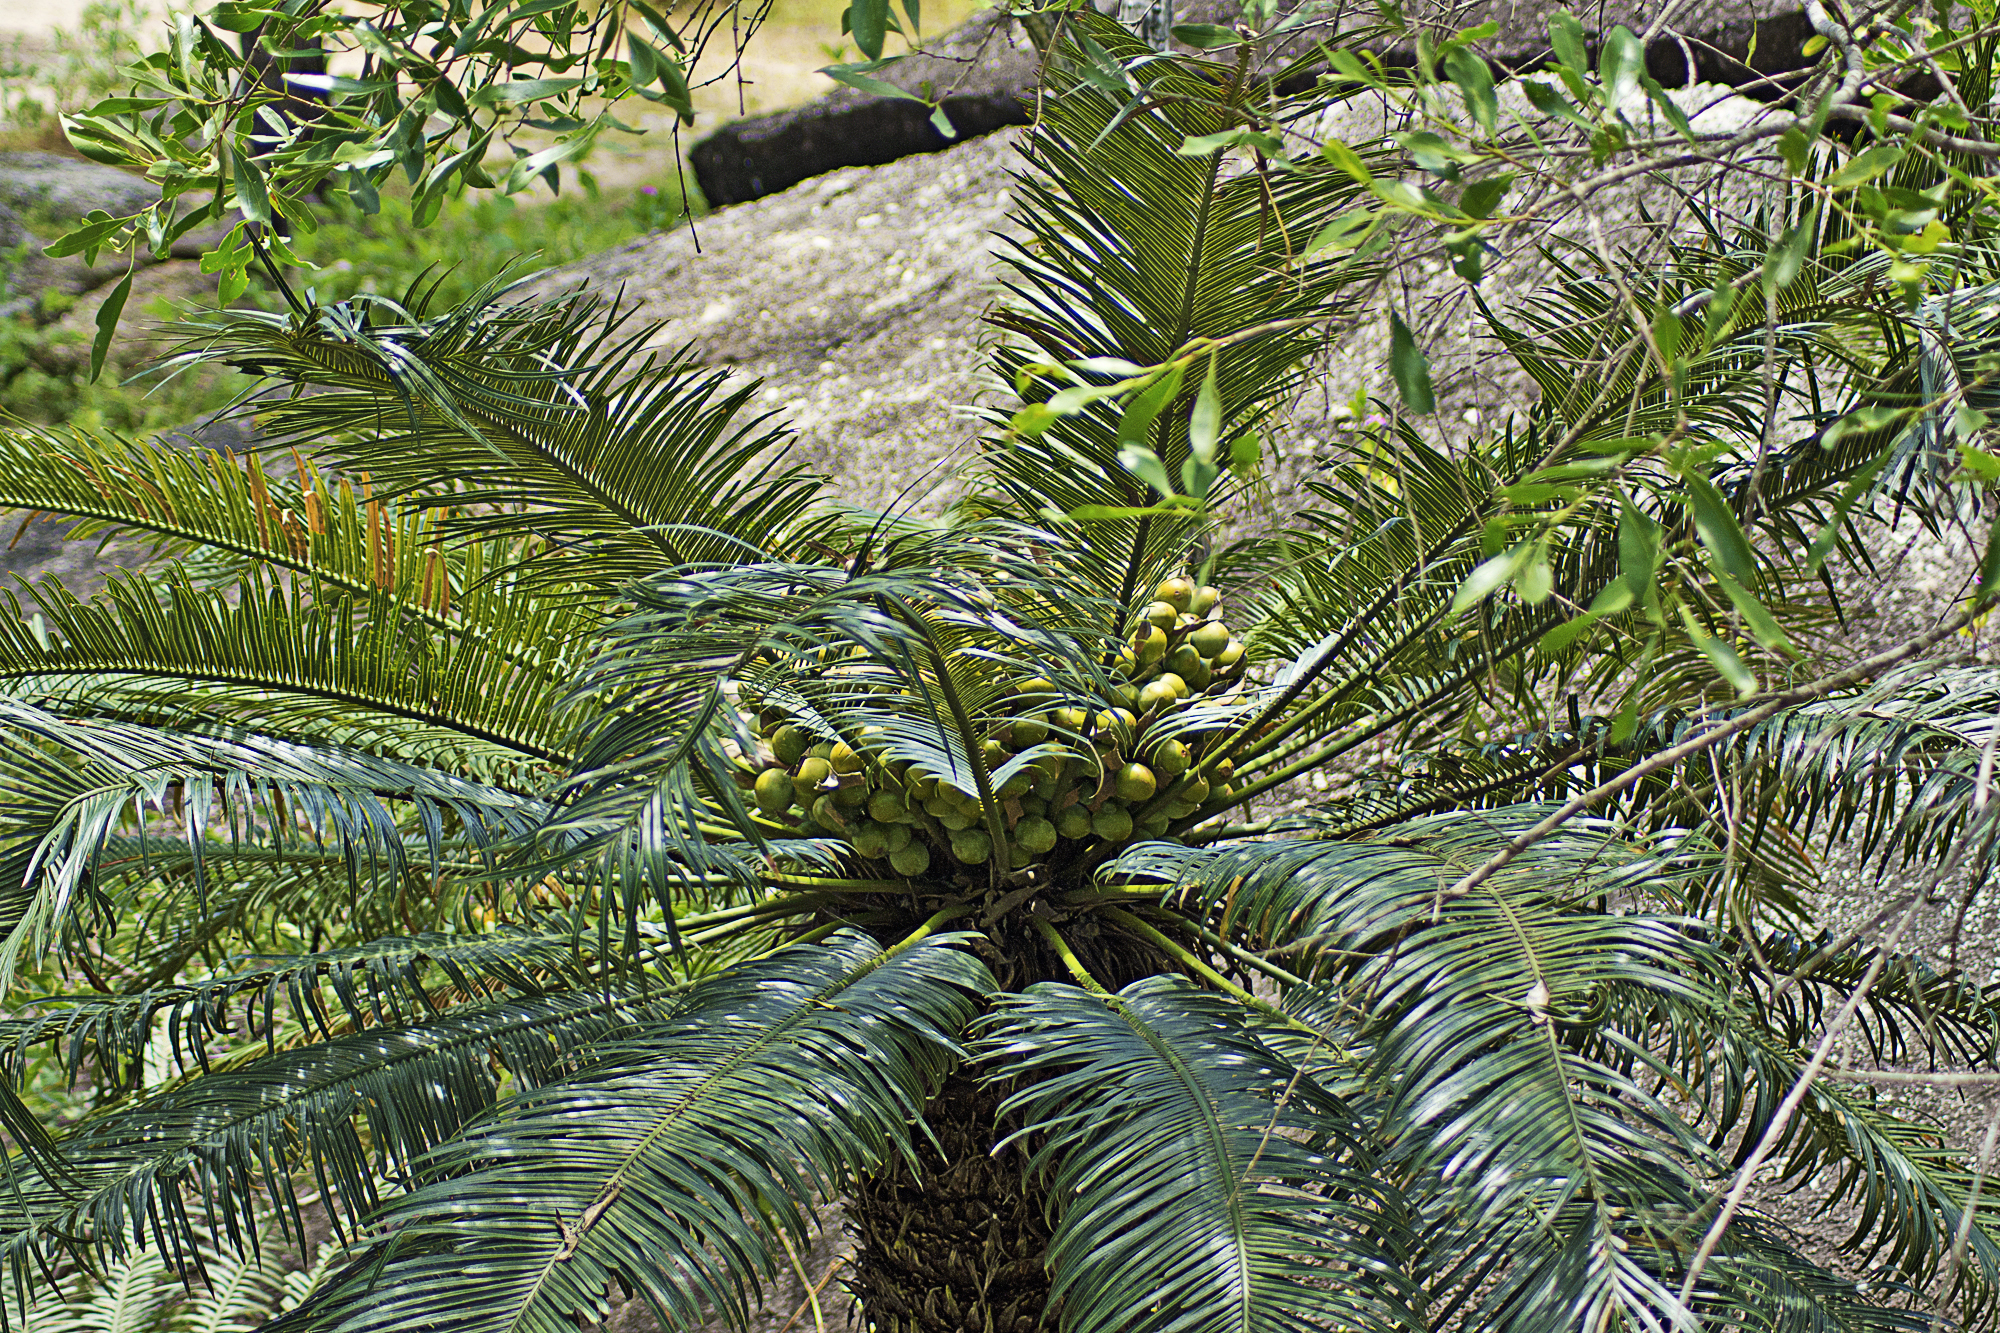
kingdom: Plantae
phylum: Tracheophyta
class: Cycadopsida
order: Cycadales
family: Cycadaceae
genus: Cycas
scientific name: Cycas media
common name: Queensland cycas
